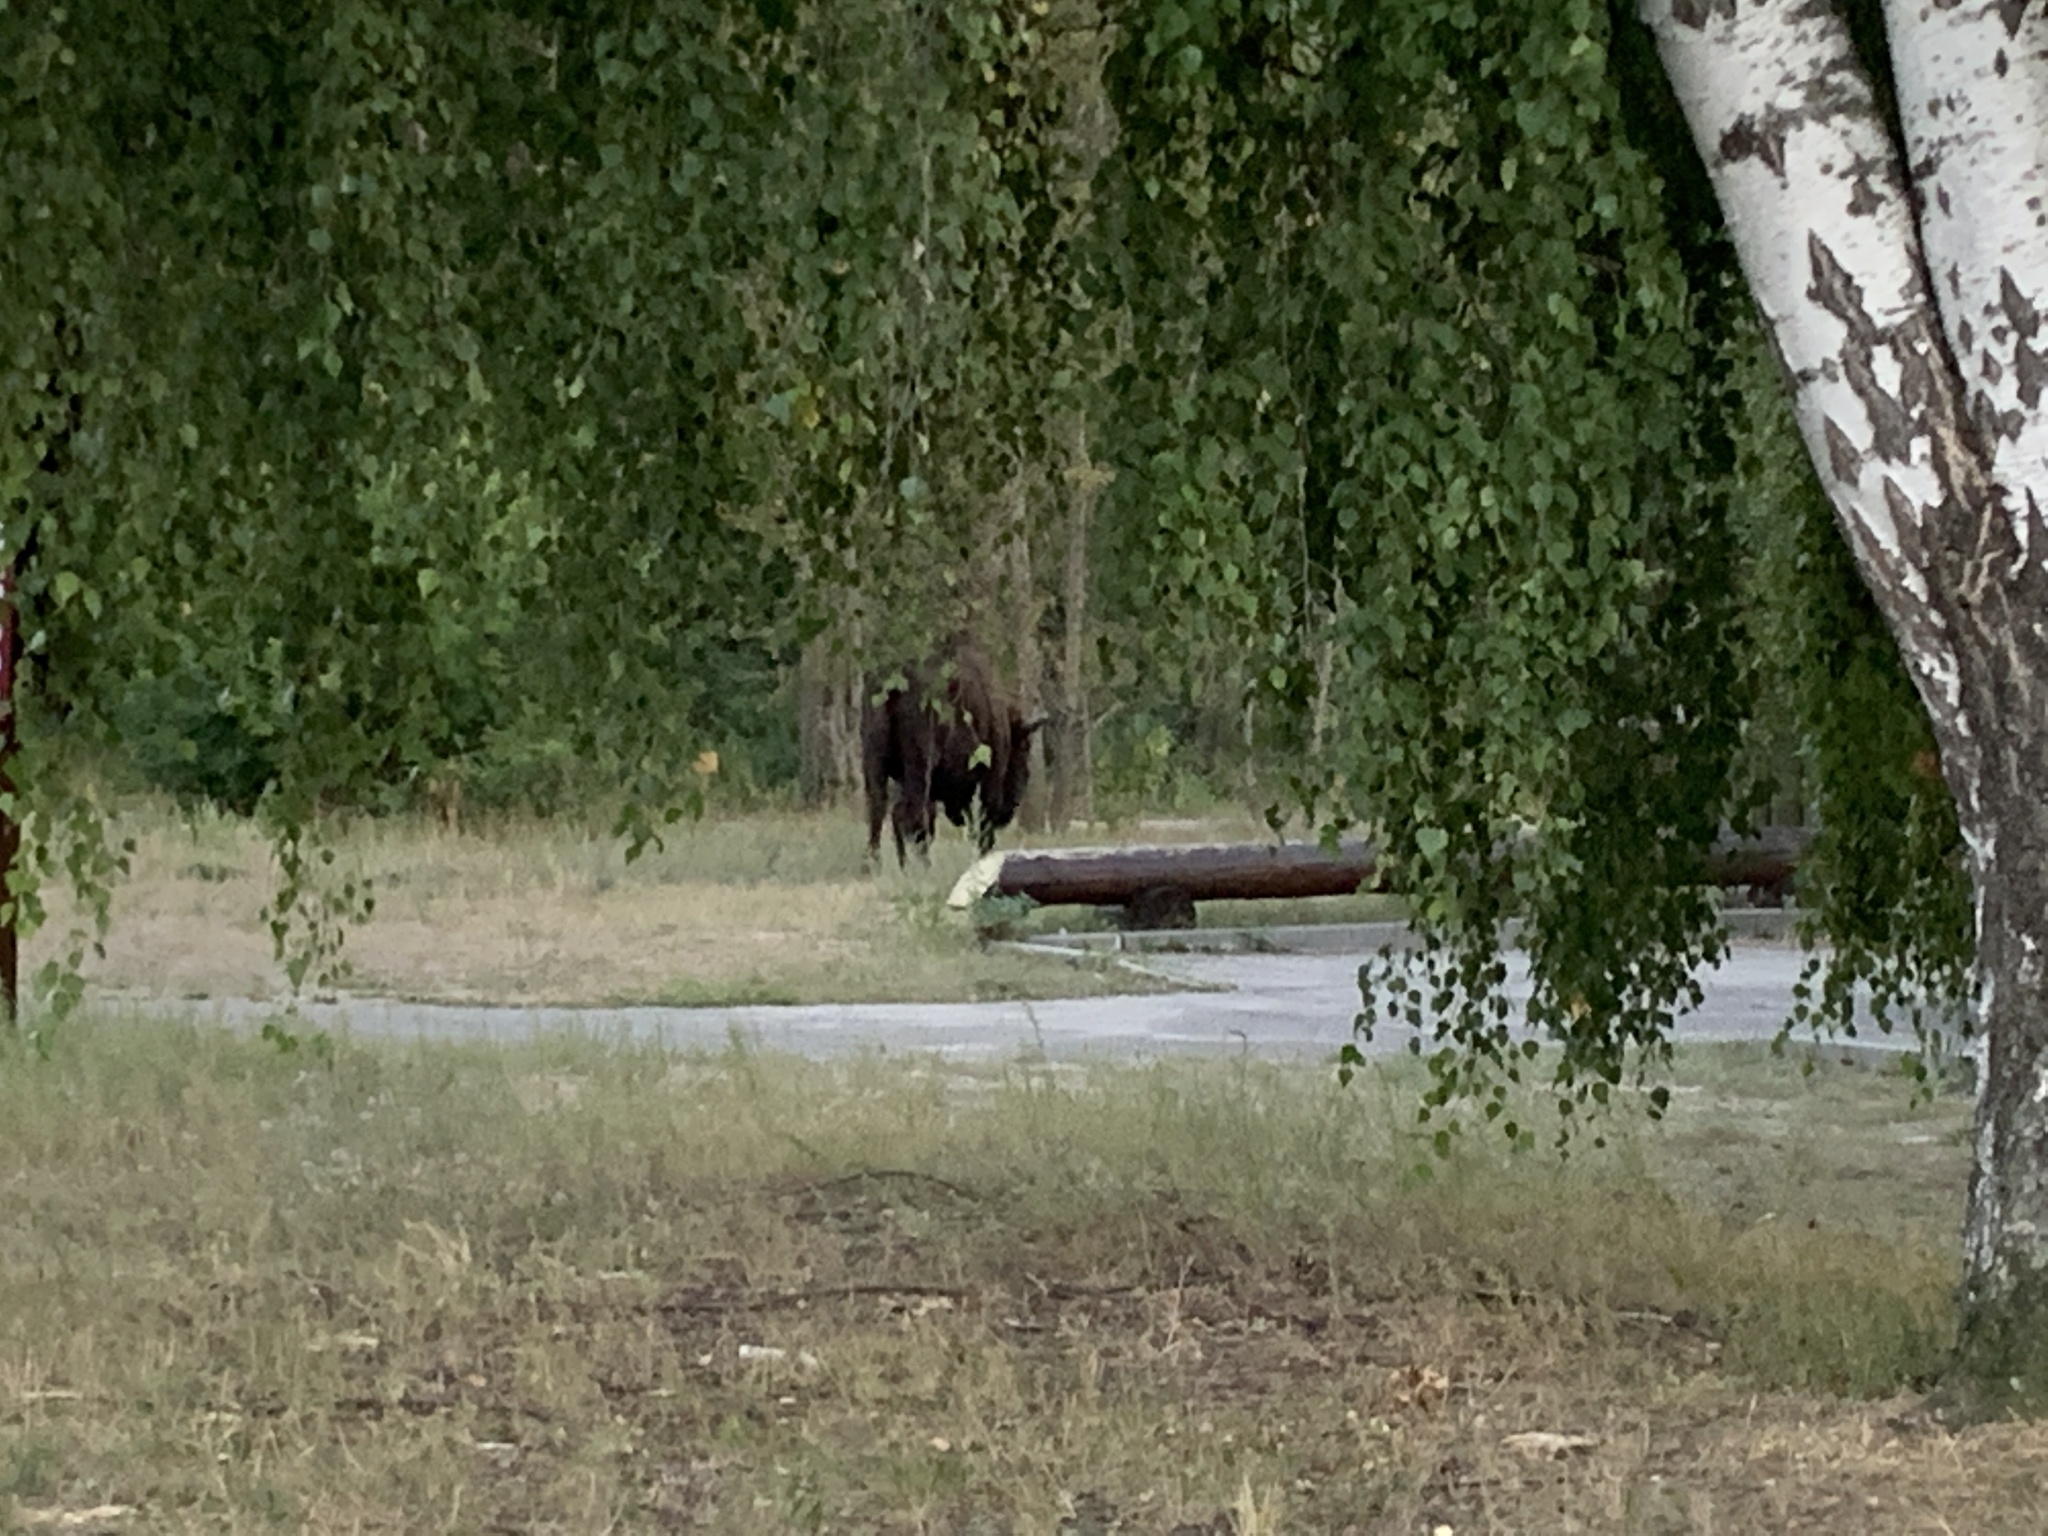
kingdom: Animalia
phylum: Chordata
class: Mammalia
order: Artiodactyla
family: Bovidae
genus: Bison
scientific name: Bison bonasus
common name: European bison
